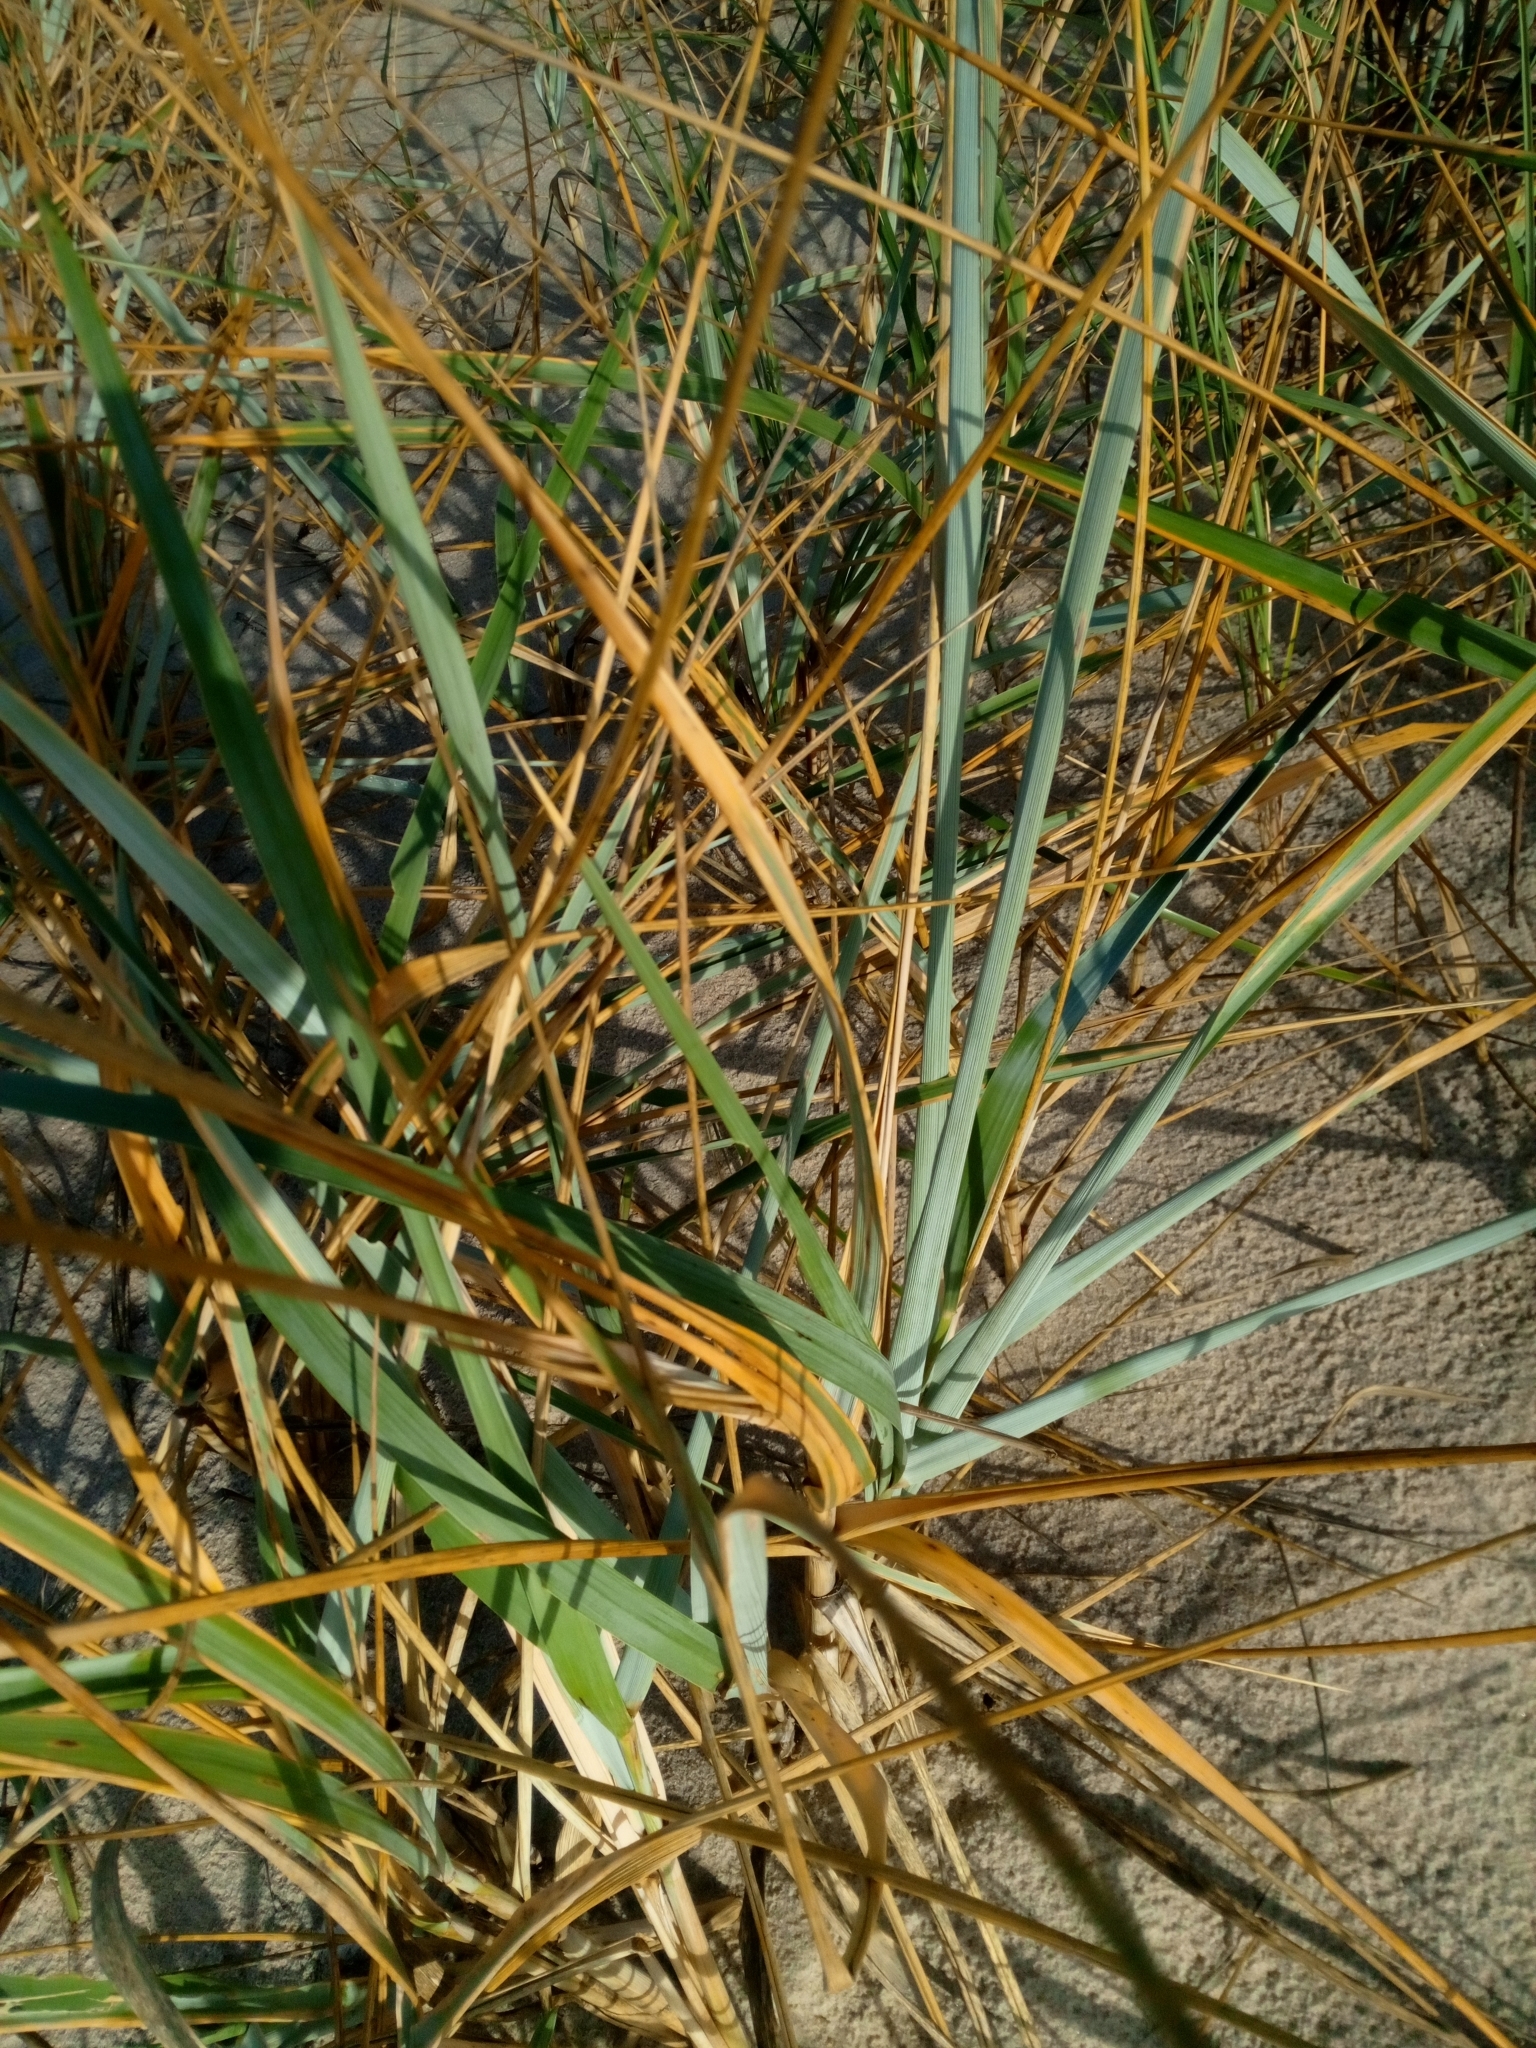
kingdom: Plantae
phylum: Tracheophyta
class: Liliopsida
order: Poales
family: Poaceae
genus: Leymus
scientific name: Leymus arenarius
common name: Lyme-grass
